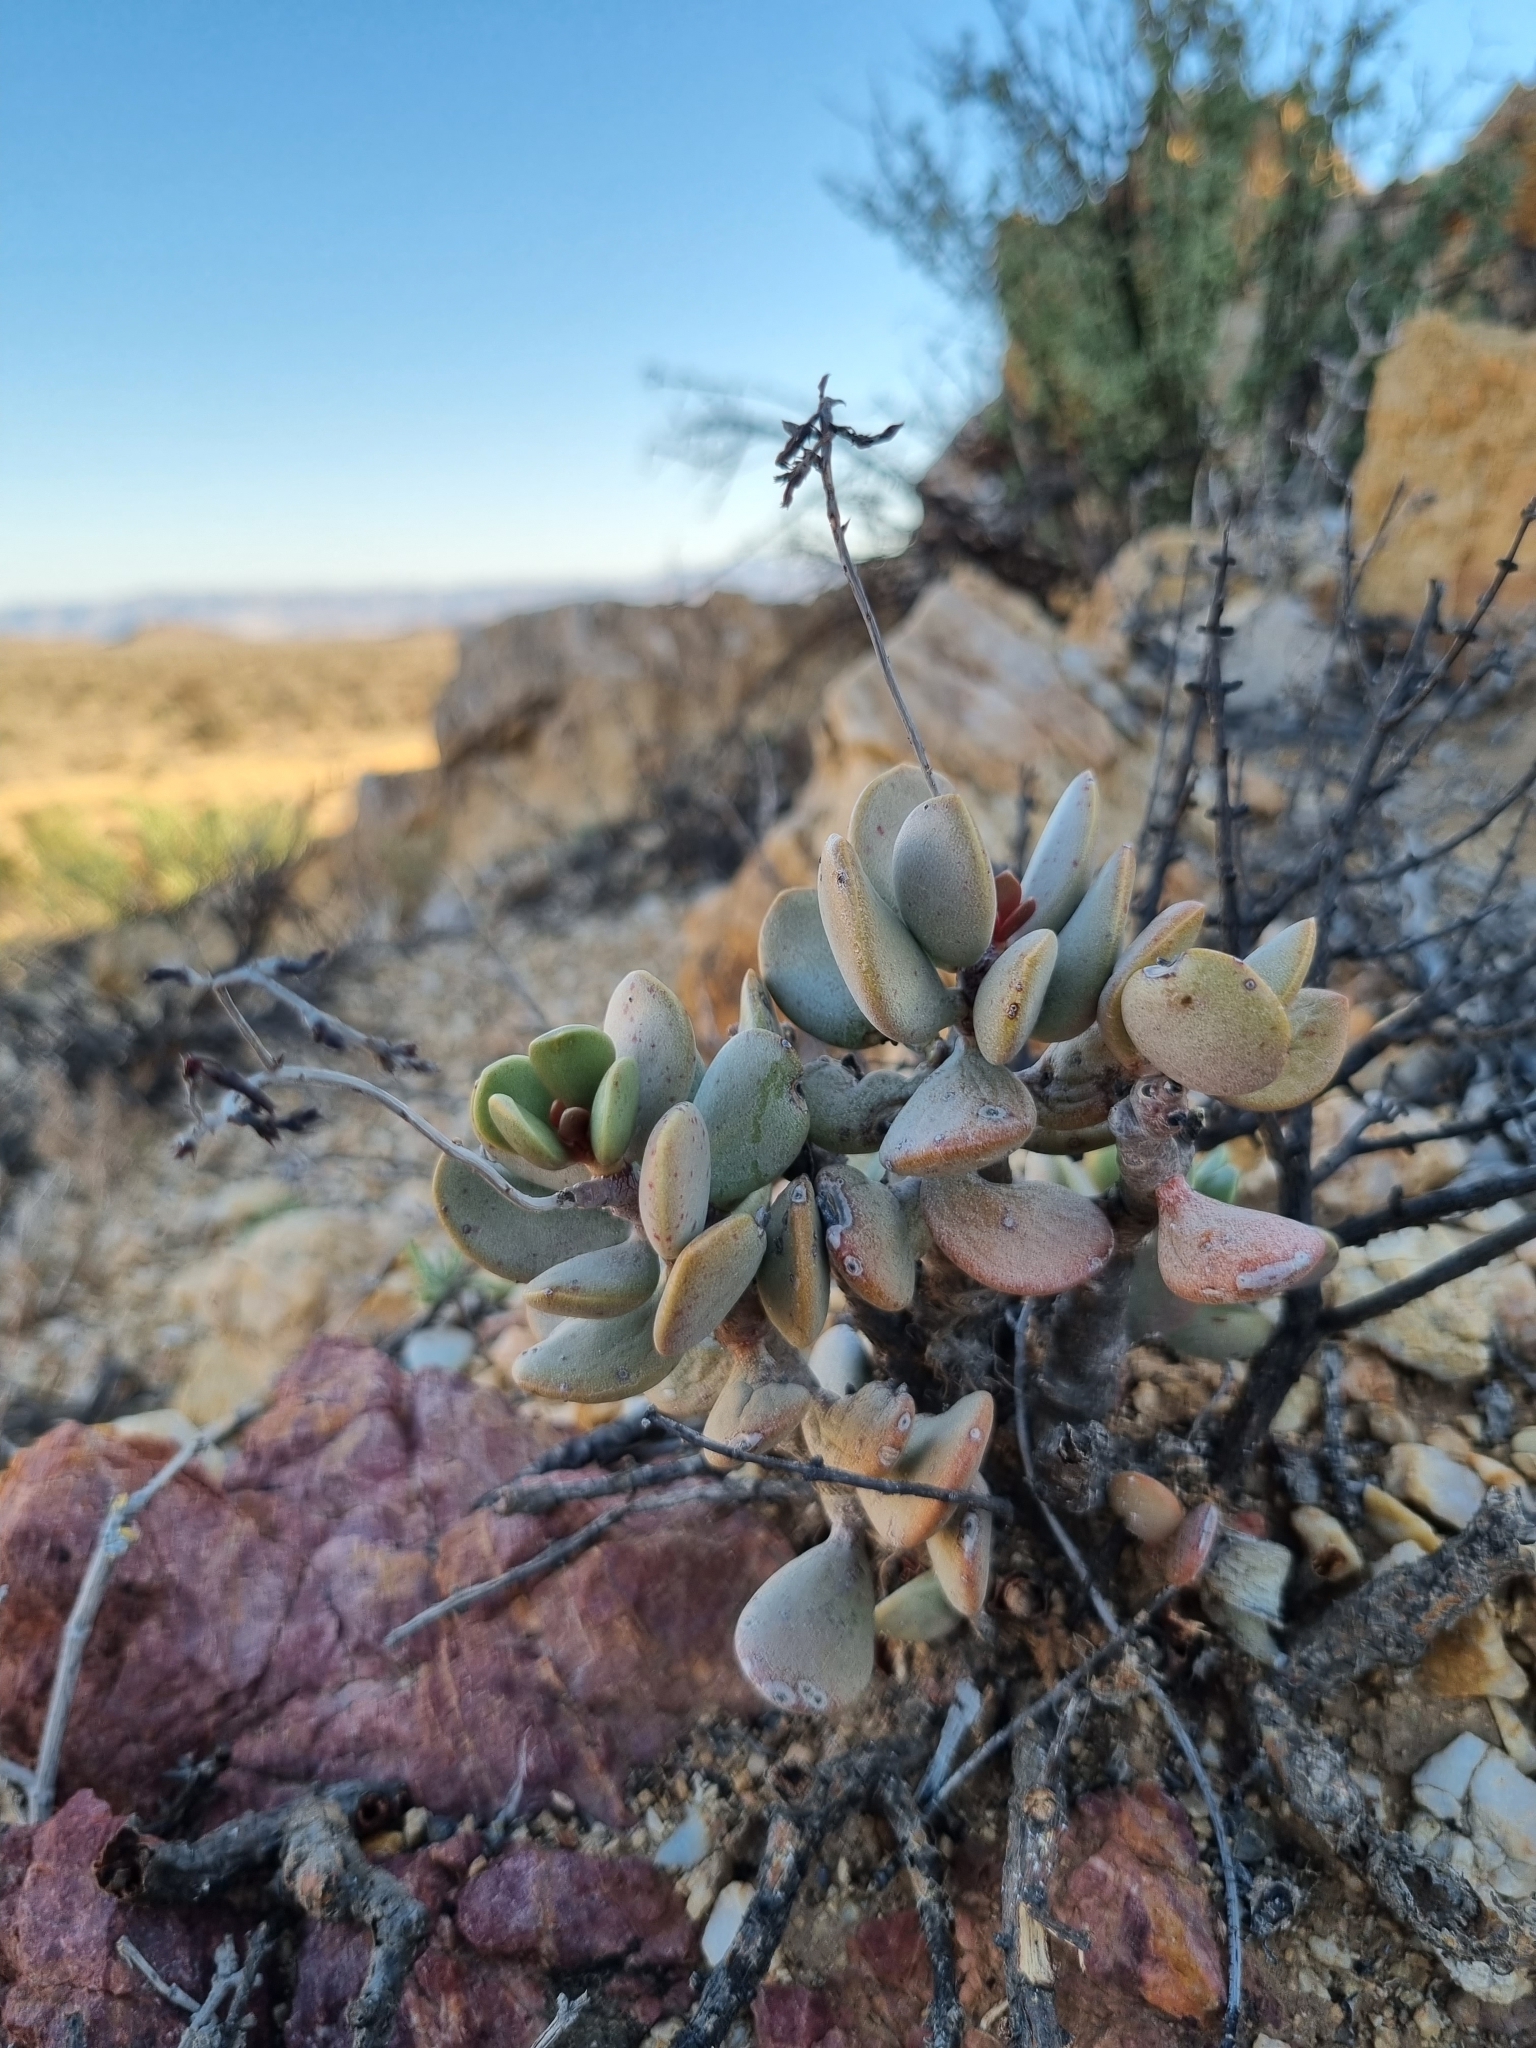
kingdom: Plantae
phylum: Tracheophyta
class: Magnoliopsida
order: Saxifragales
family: Crassulaceae
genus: Adromischus
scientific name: Adromischus montium-klinghardtii
